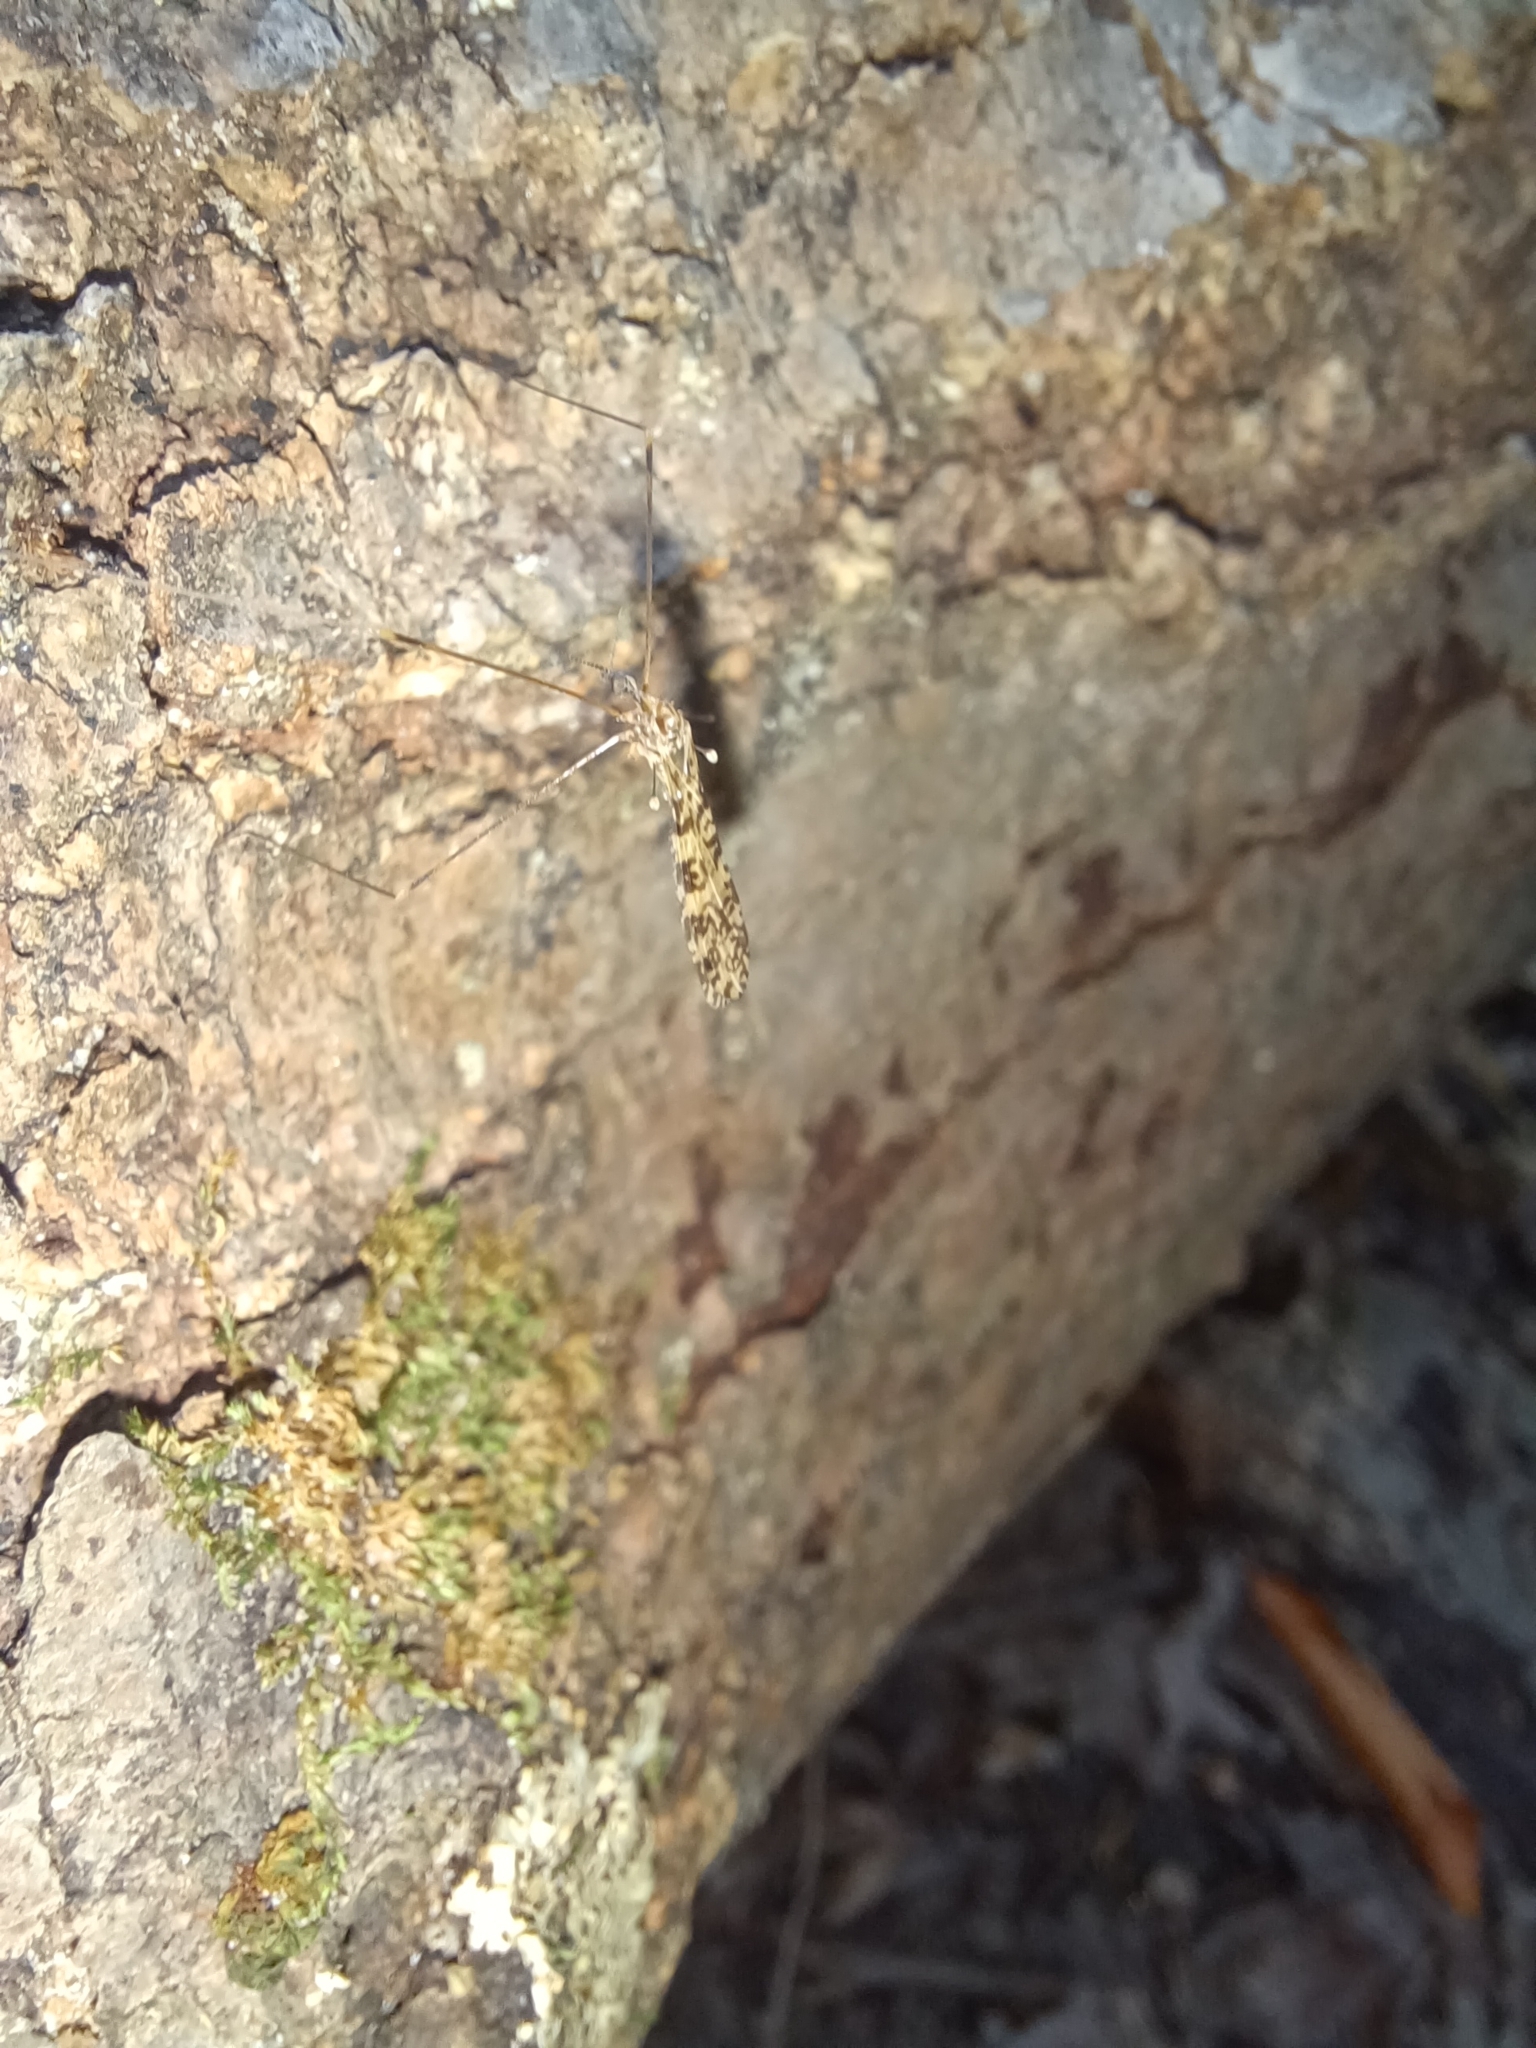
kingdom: Animalia
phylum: Arthropoda
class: Insecta
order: Diptera
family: Limoniidae
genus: Limonia
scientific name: Limonia annulata
